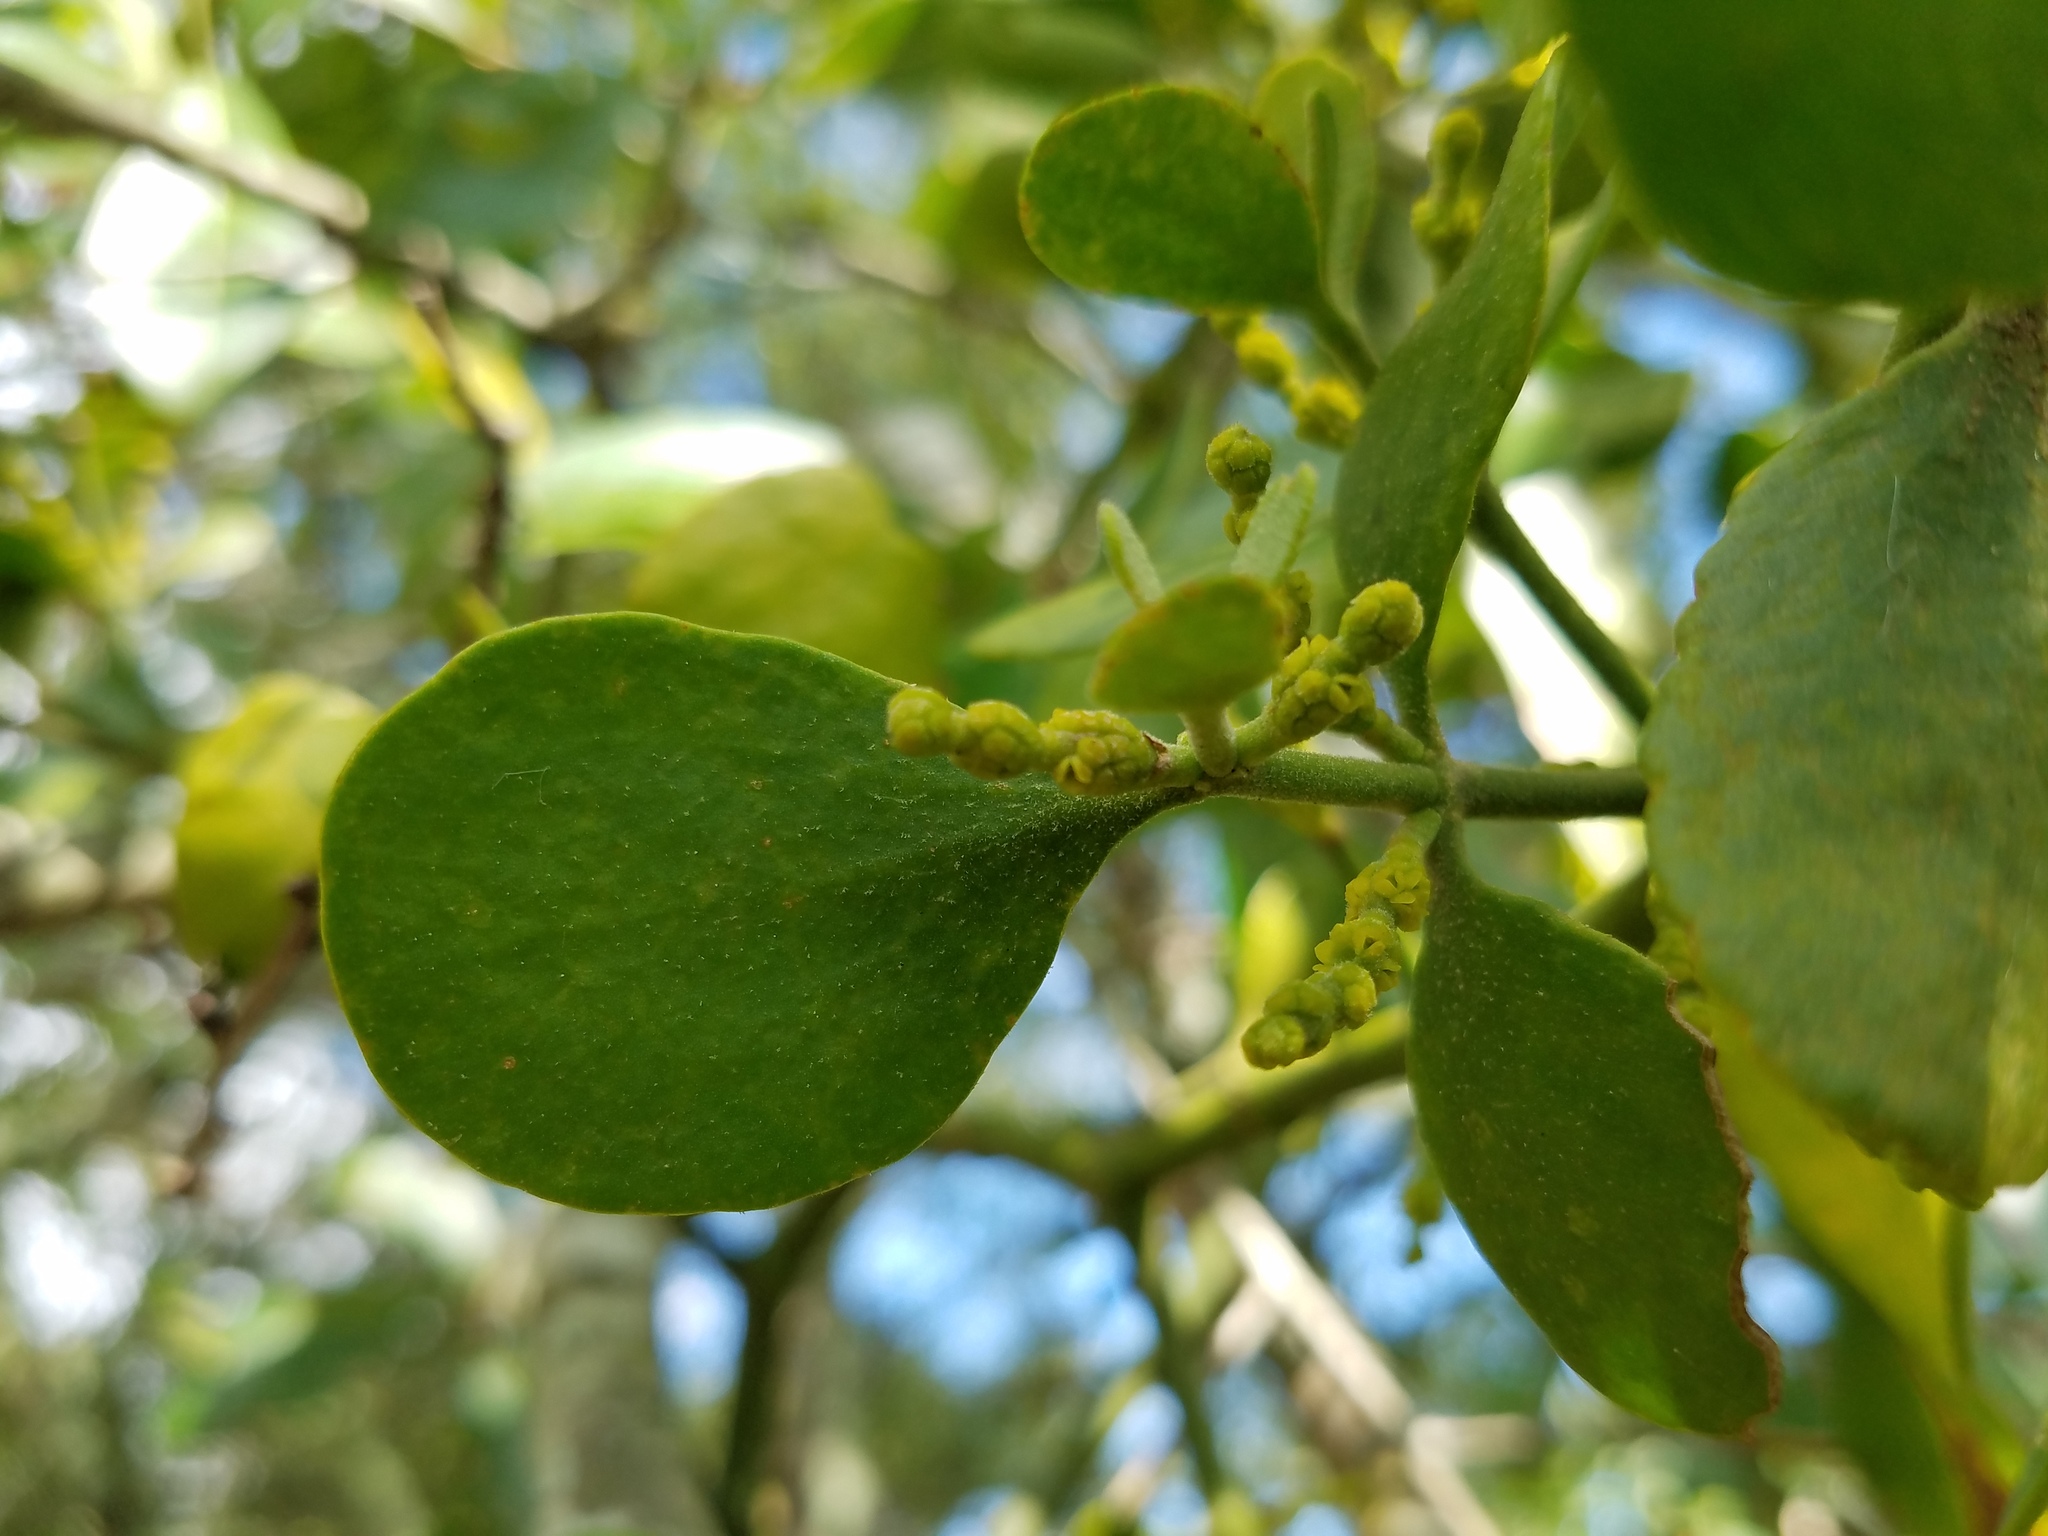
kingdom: Plantae
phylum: Tracheophyta
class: Magnoliopsida
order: Santalales
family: Viscaceae
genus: Phoradendron
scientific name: Phoradendron leucarpum
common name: Pacific mistletoe
